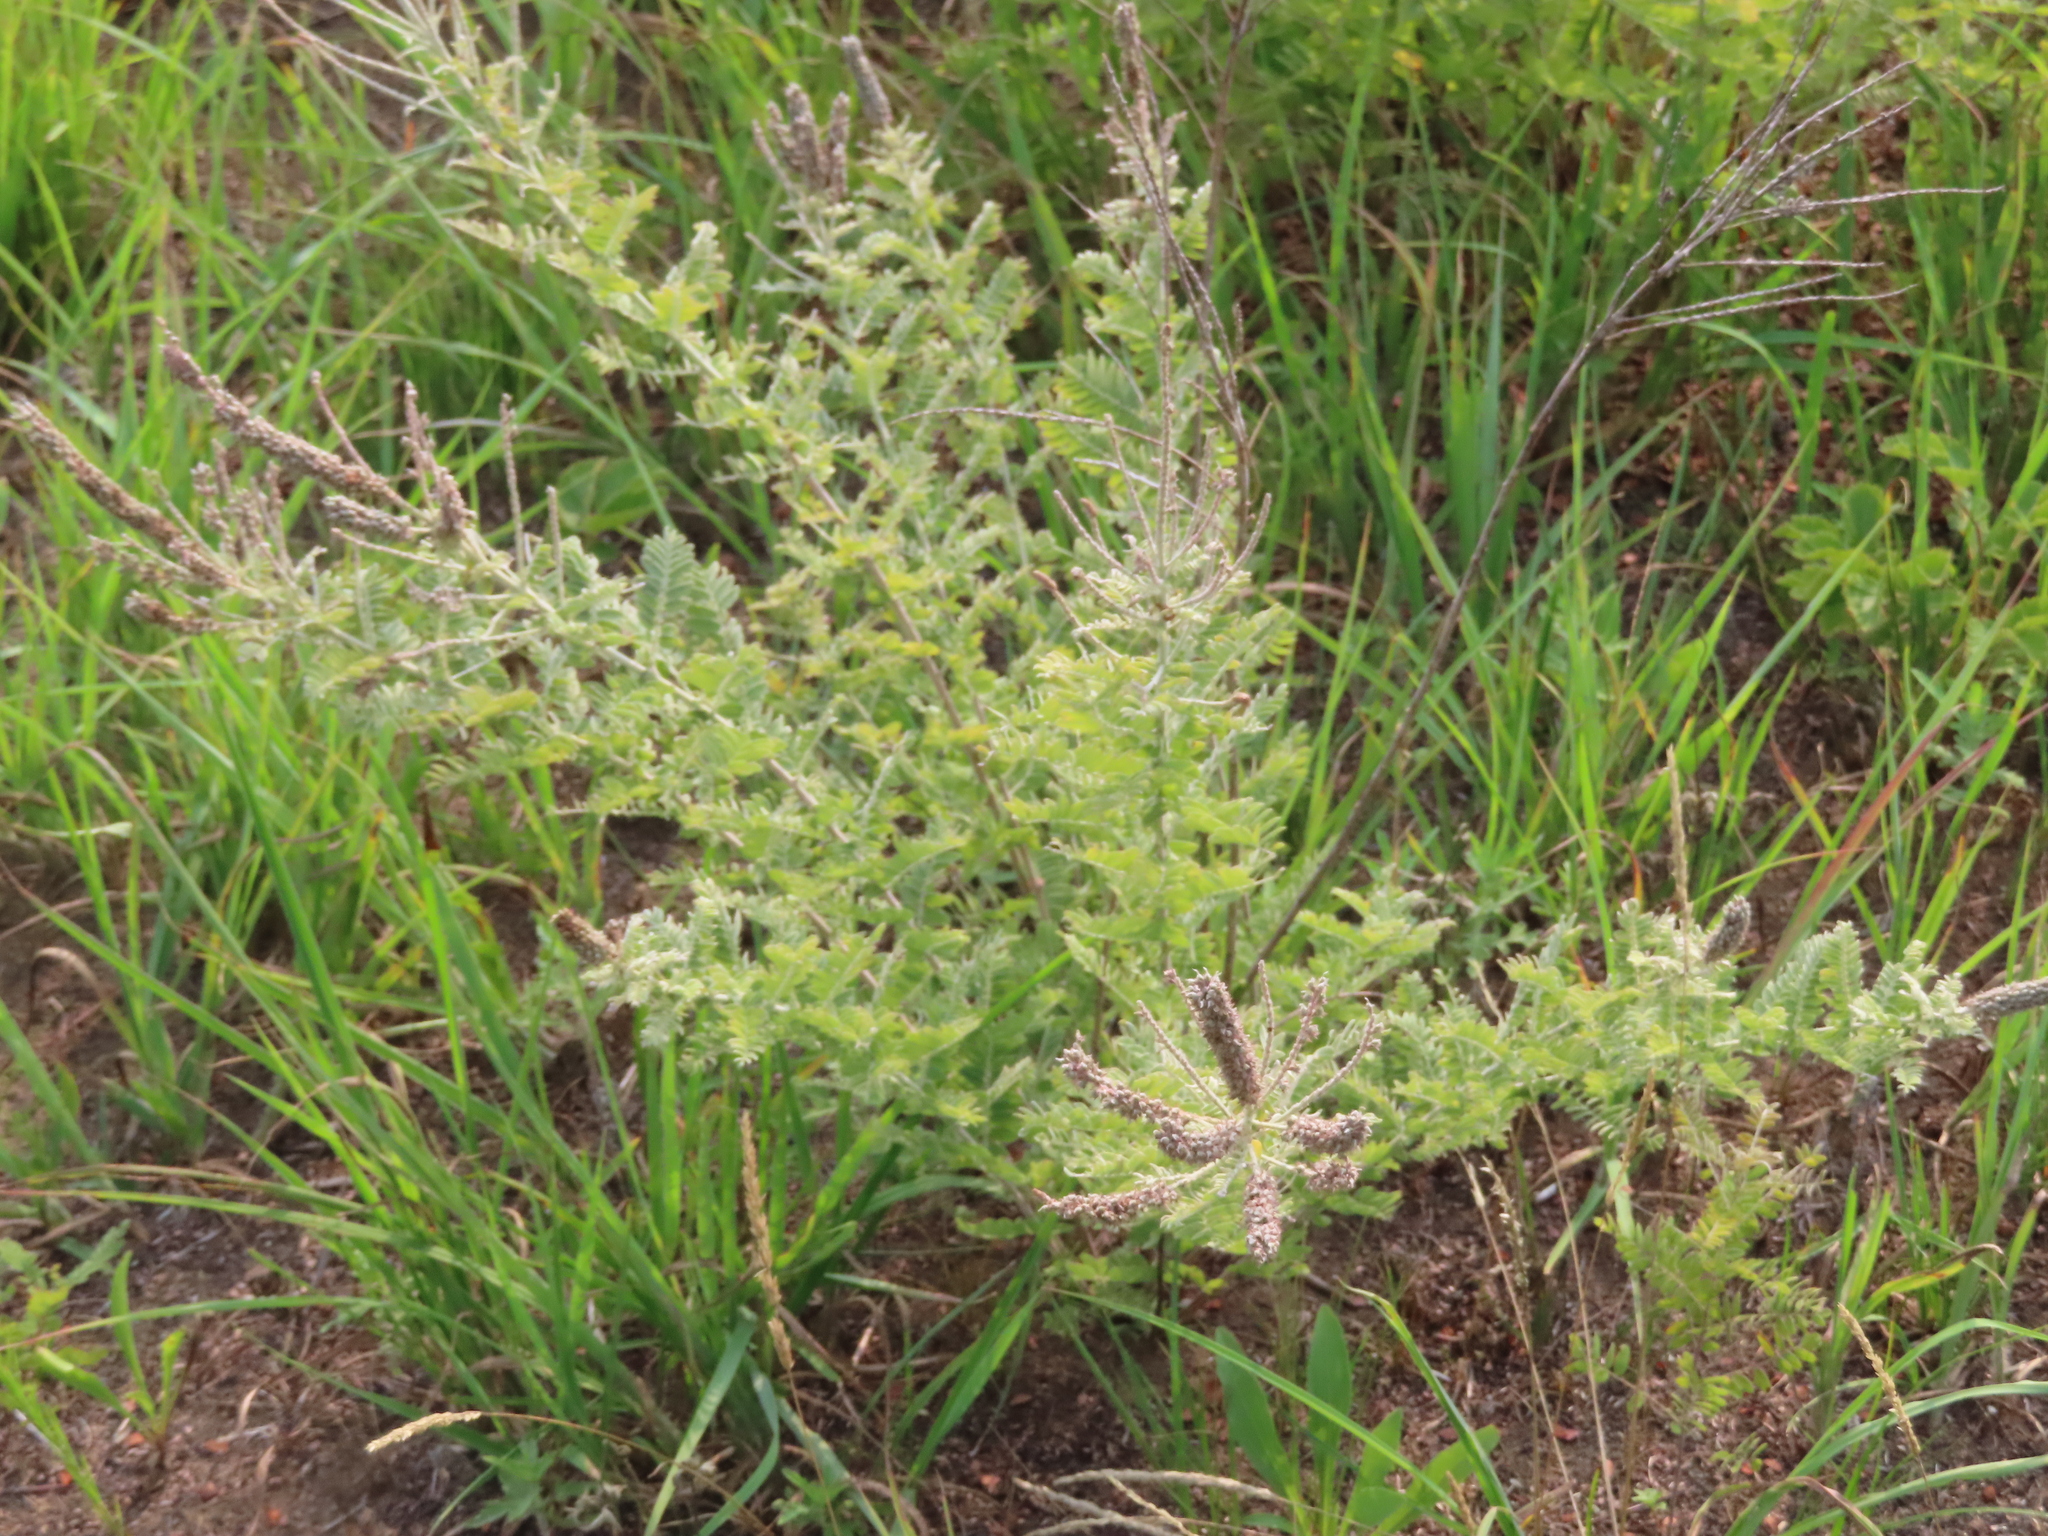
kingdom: Plantae
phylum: Tracheophyta
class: Magnoliopsida
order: Fabales
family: Fabaceae
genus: Amorpha
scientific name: Amorpha canescens
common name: Leadplant
